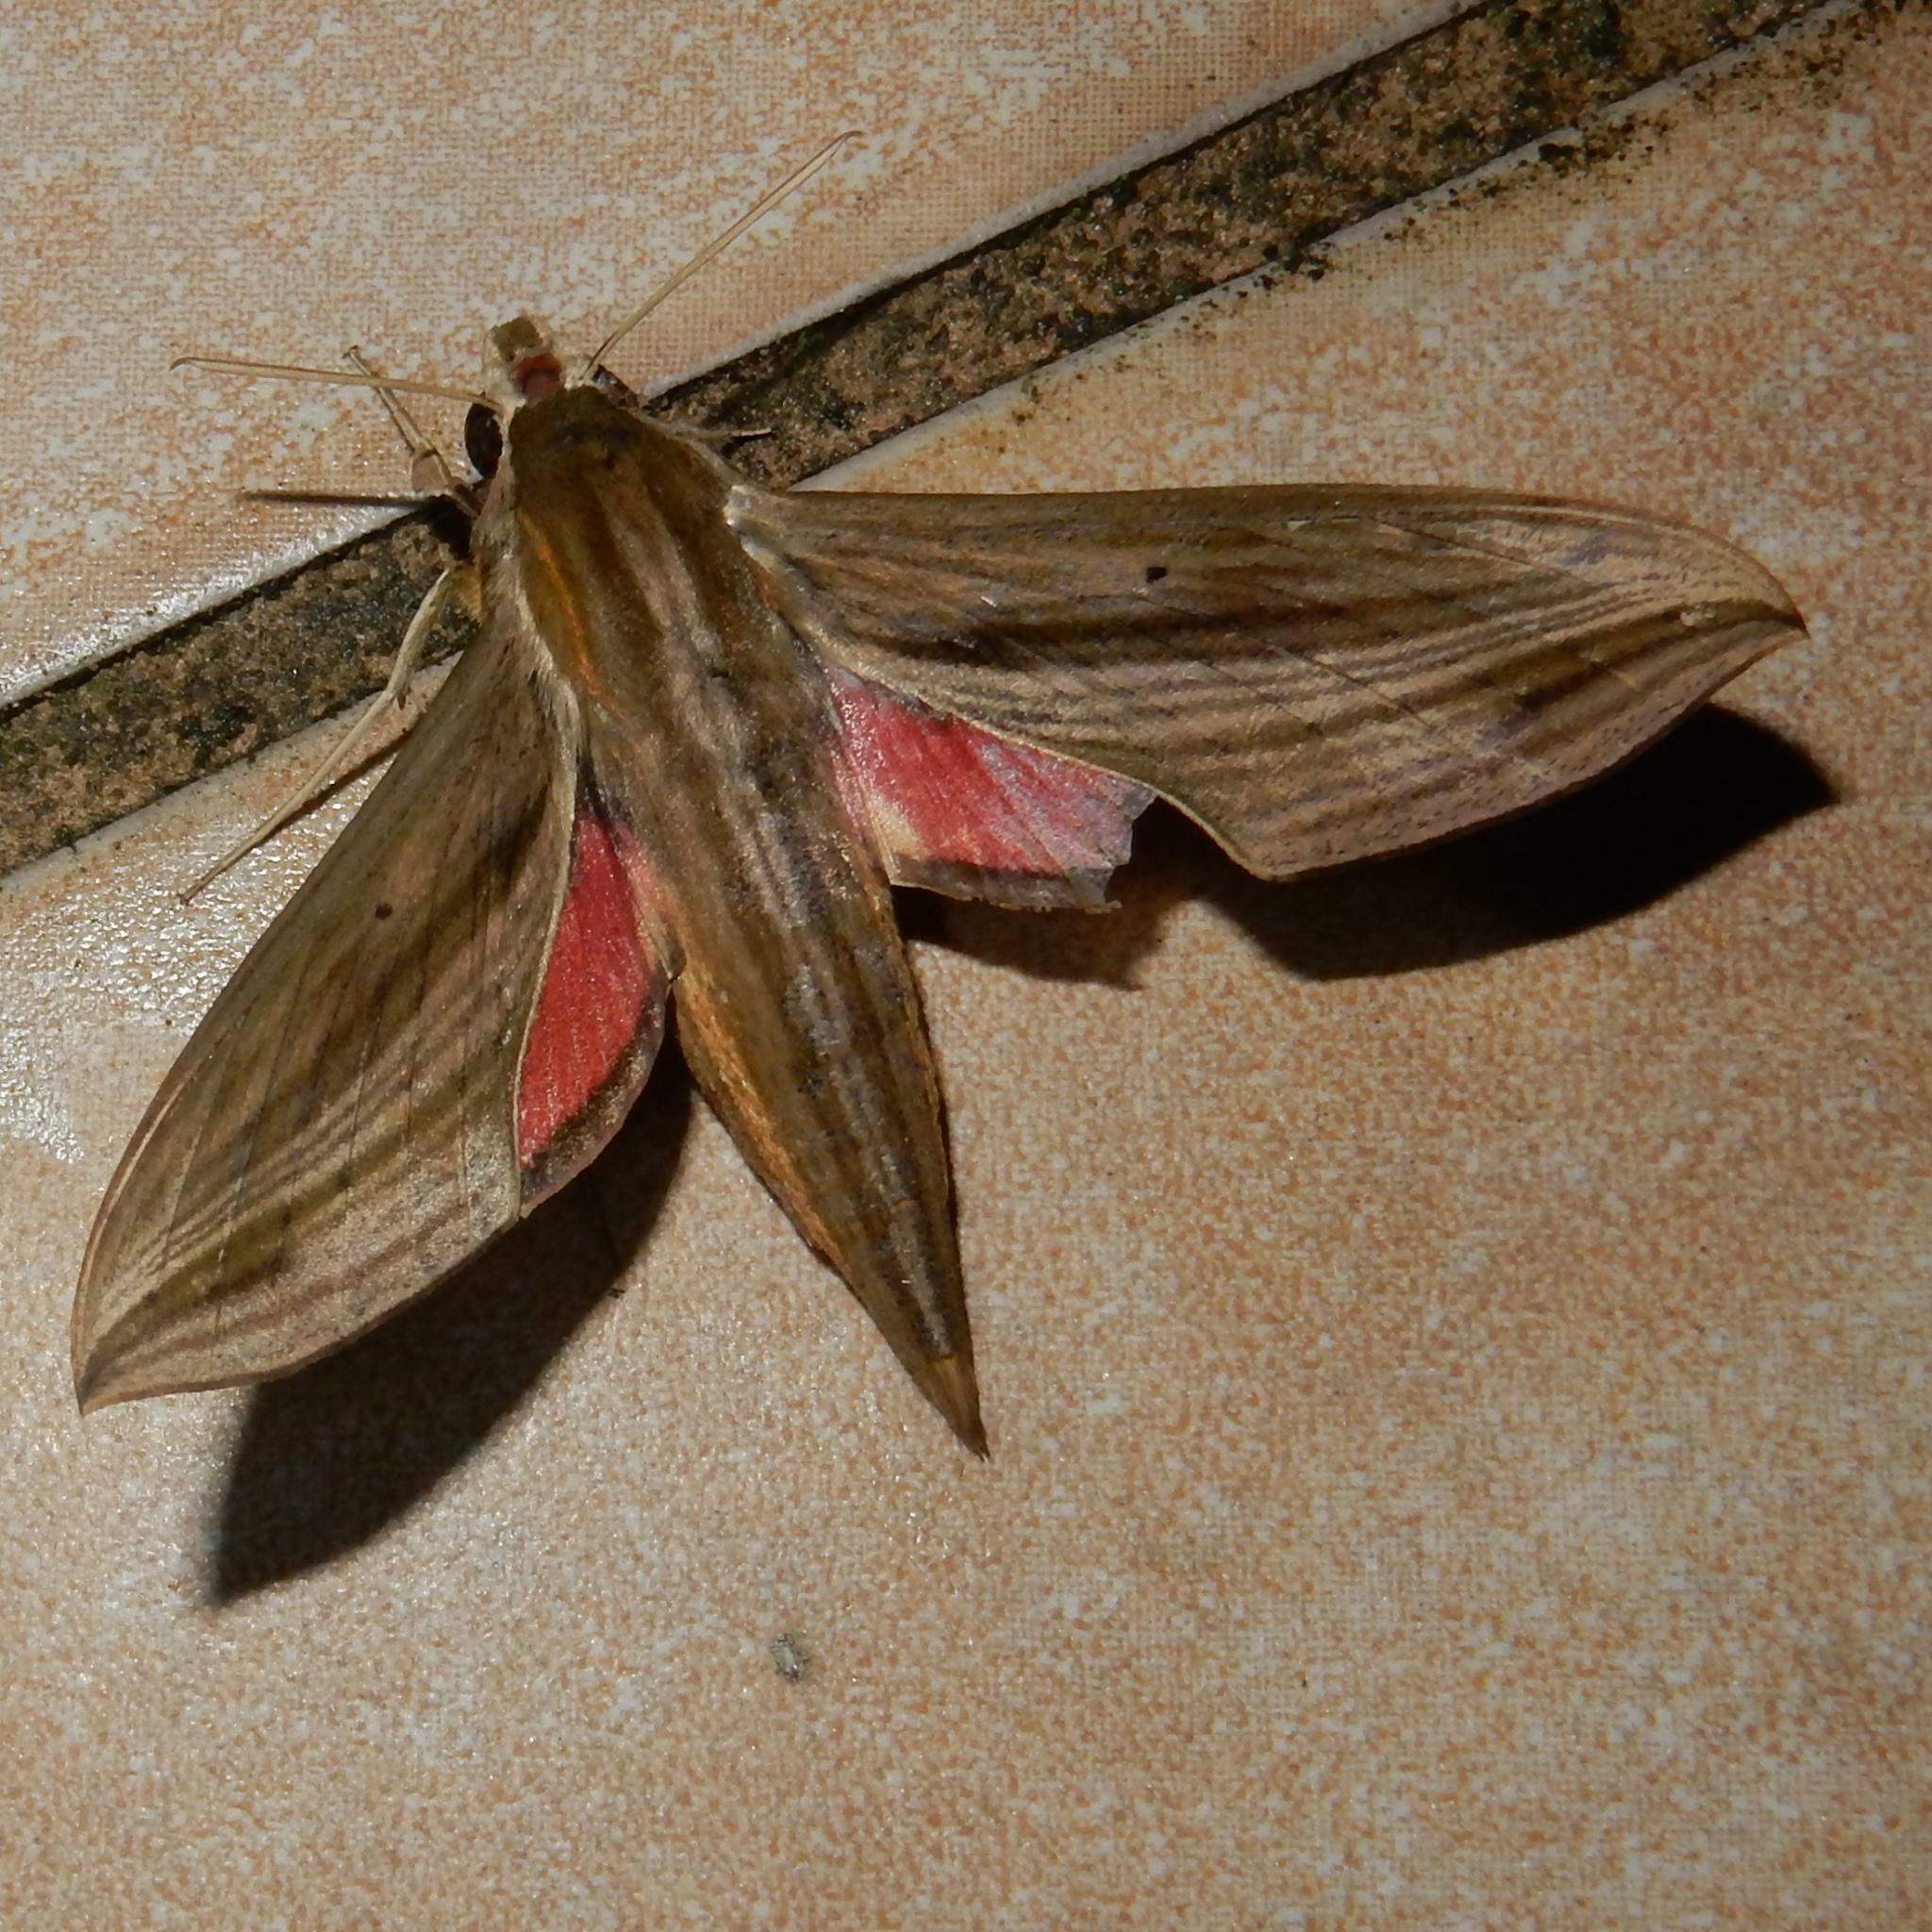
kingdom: Animalia
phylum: Arthropoda
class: Insecta
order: Lepidoptera
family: Sphingidae
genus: Hippotion
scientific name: Hippotion eson
